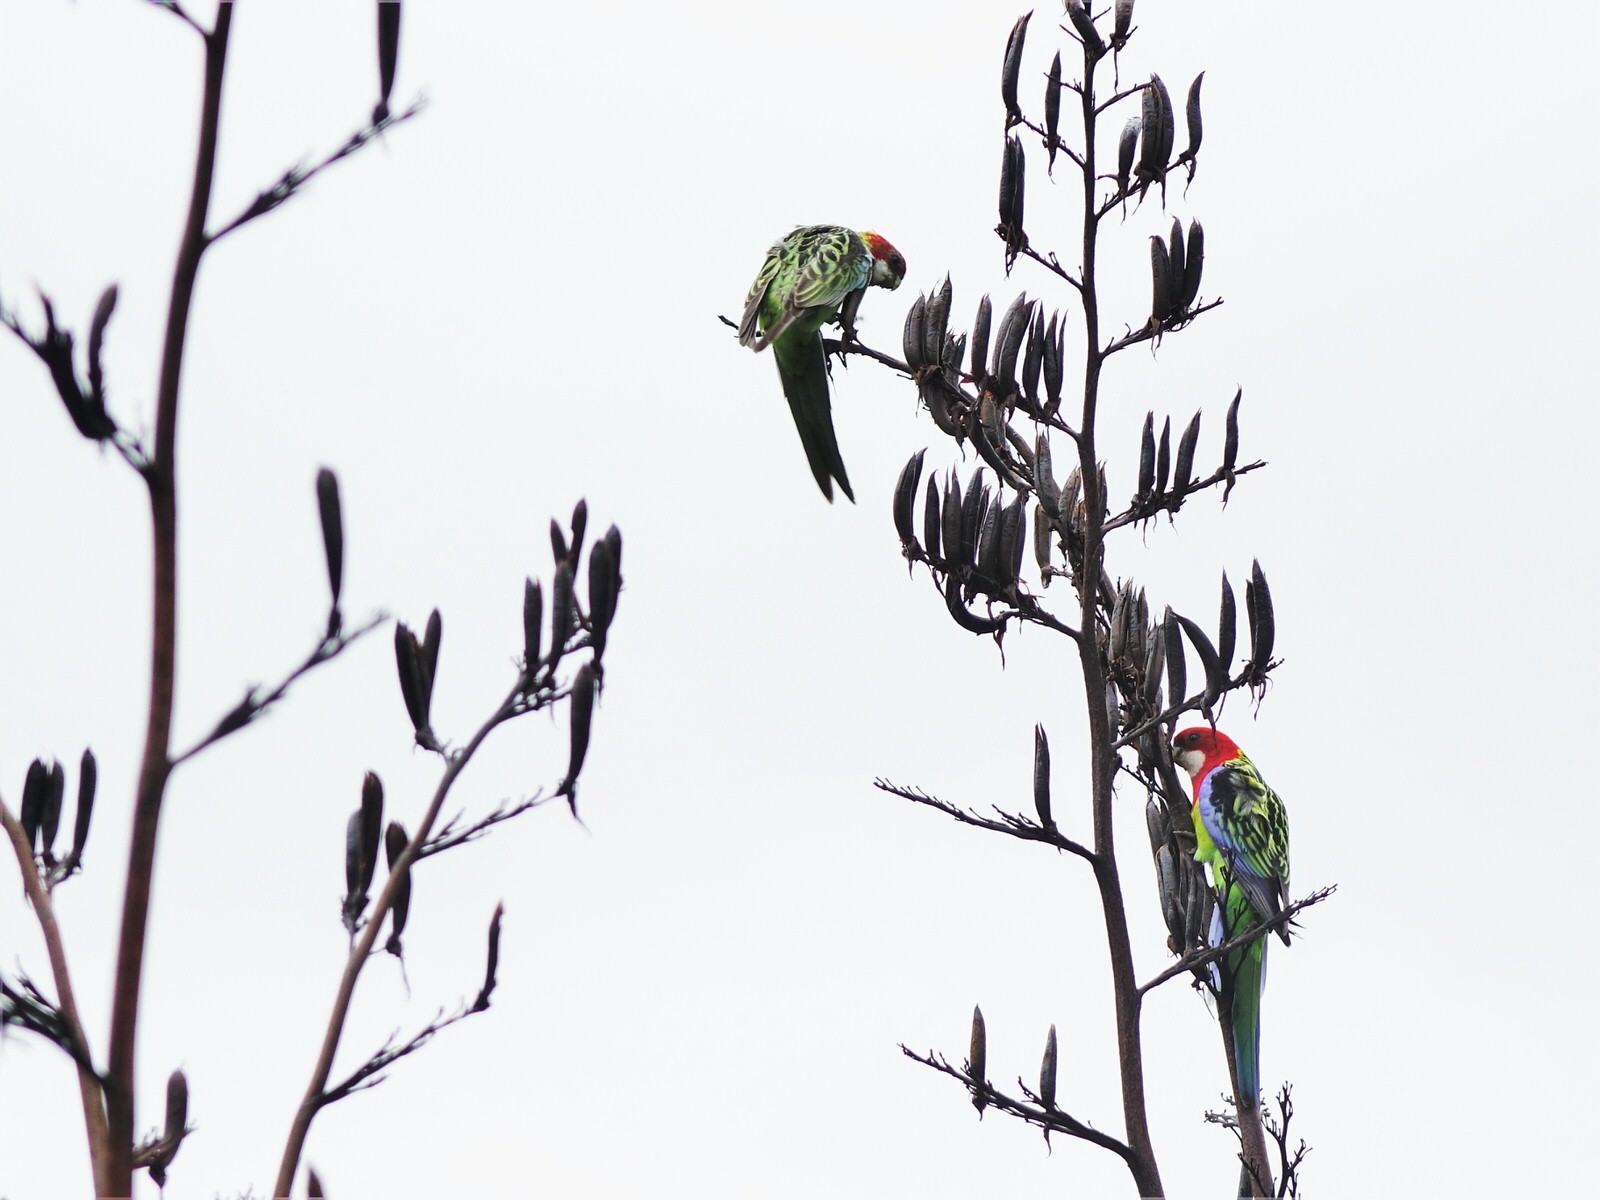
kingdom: Animalia
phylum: Chordata
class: Aves
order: Psittaciformes
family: Psittacidae
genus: Platycercus
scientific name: Platycercus eximius
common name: Eastern rosella
